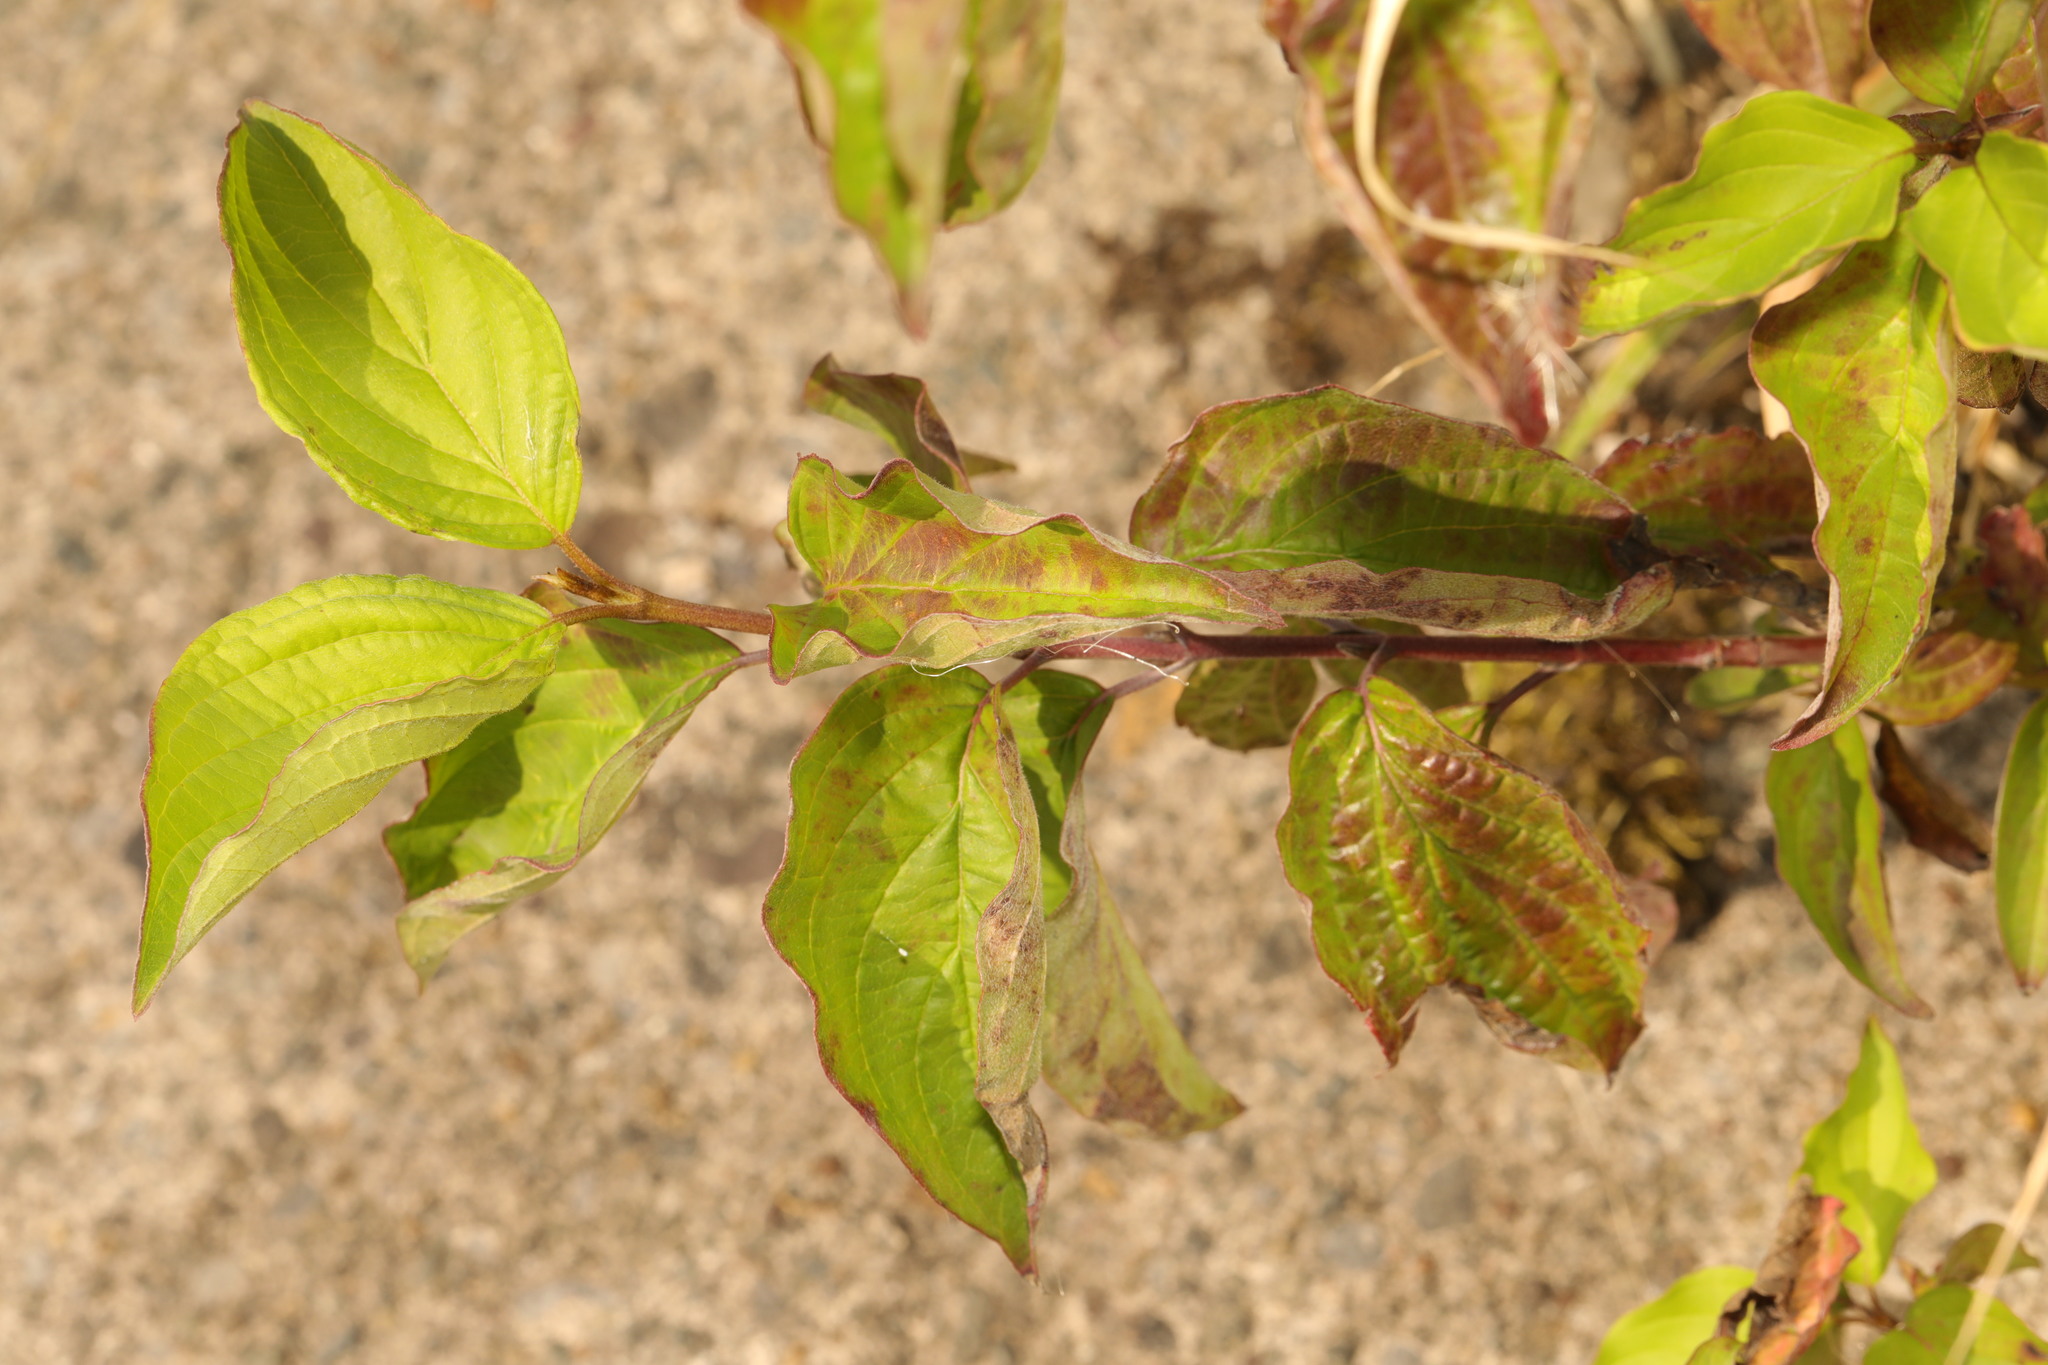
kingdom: Plantae
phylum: Tracheophyta
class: Magnoliopsida
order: Cornales
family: Cornaceae
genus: Cornus
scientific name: Cornus sanguinea
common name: Dogwood
